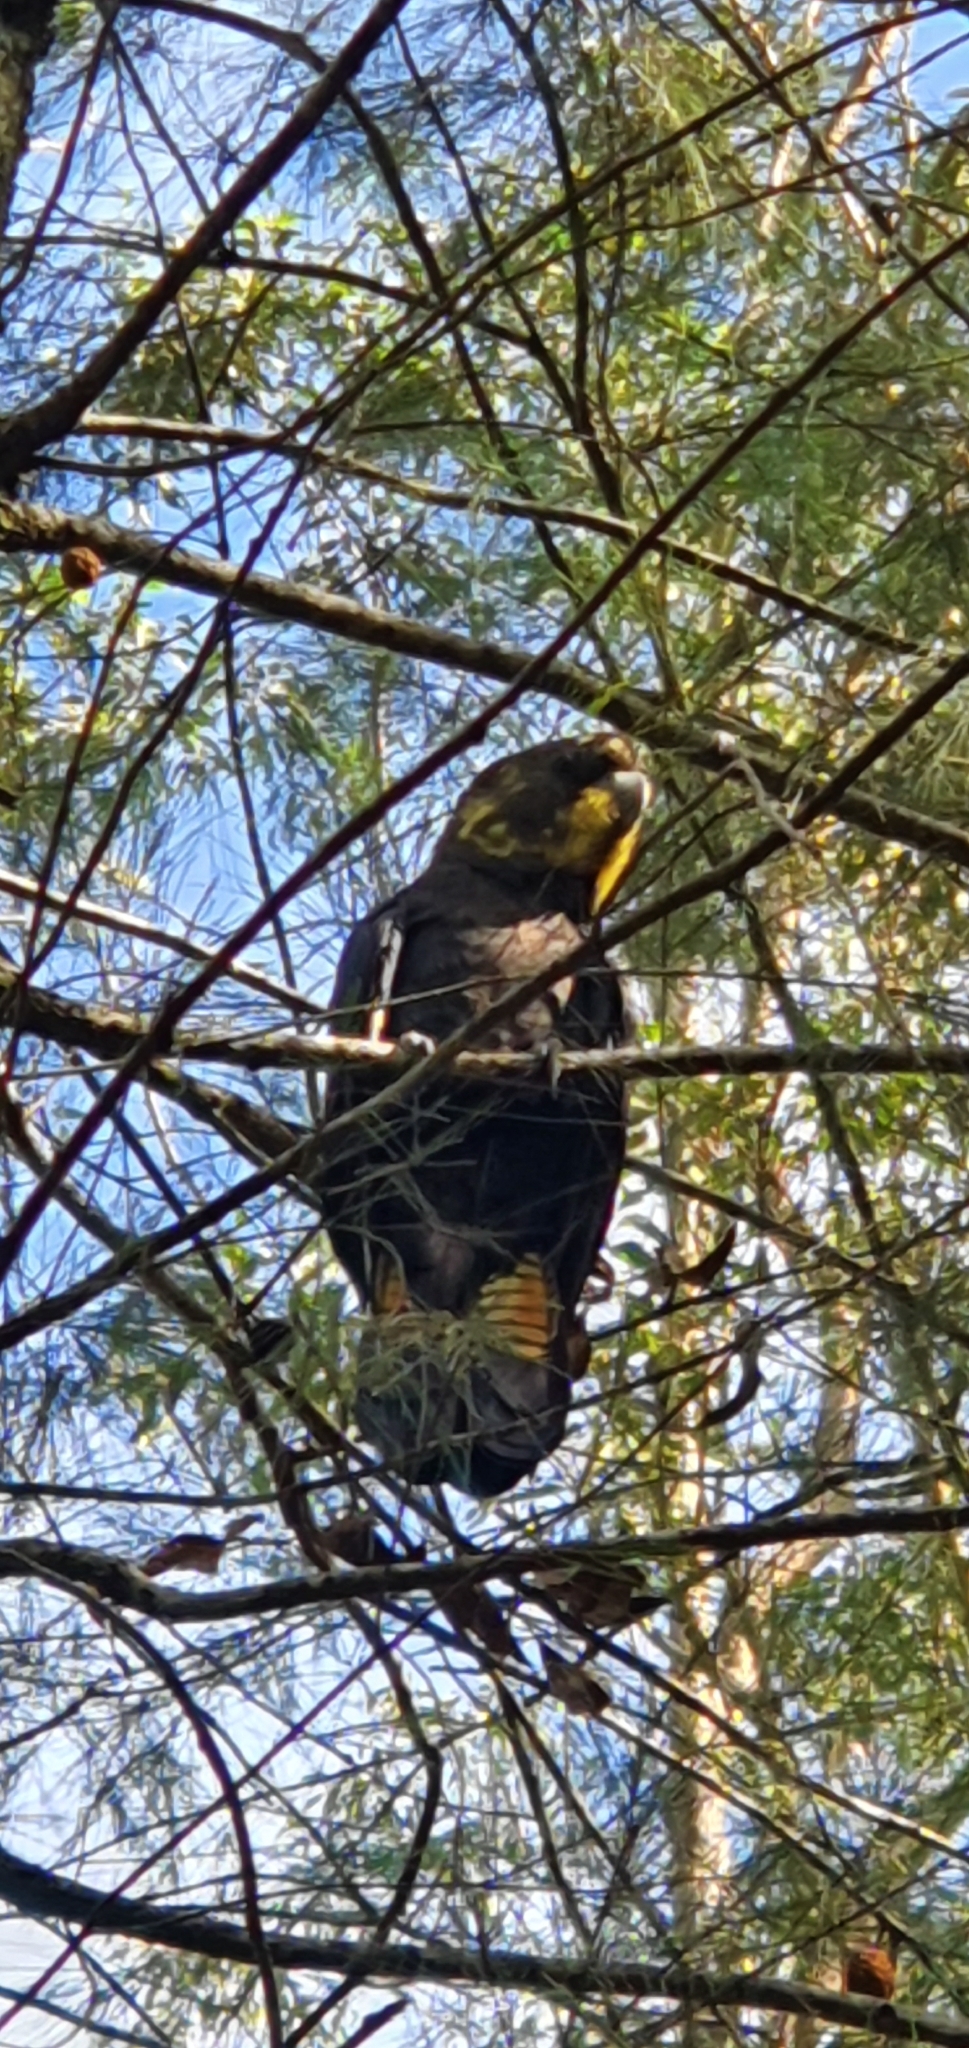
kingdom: Animalia
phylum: Chordata
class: Aves
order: Psittaciformes
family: Psittacidae
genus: Calyptorhynchus
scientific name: Calyptorhynchus lathami
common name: Glossy black cockatoo
